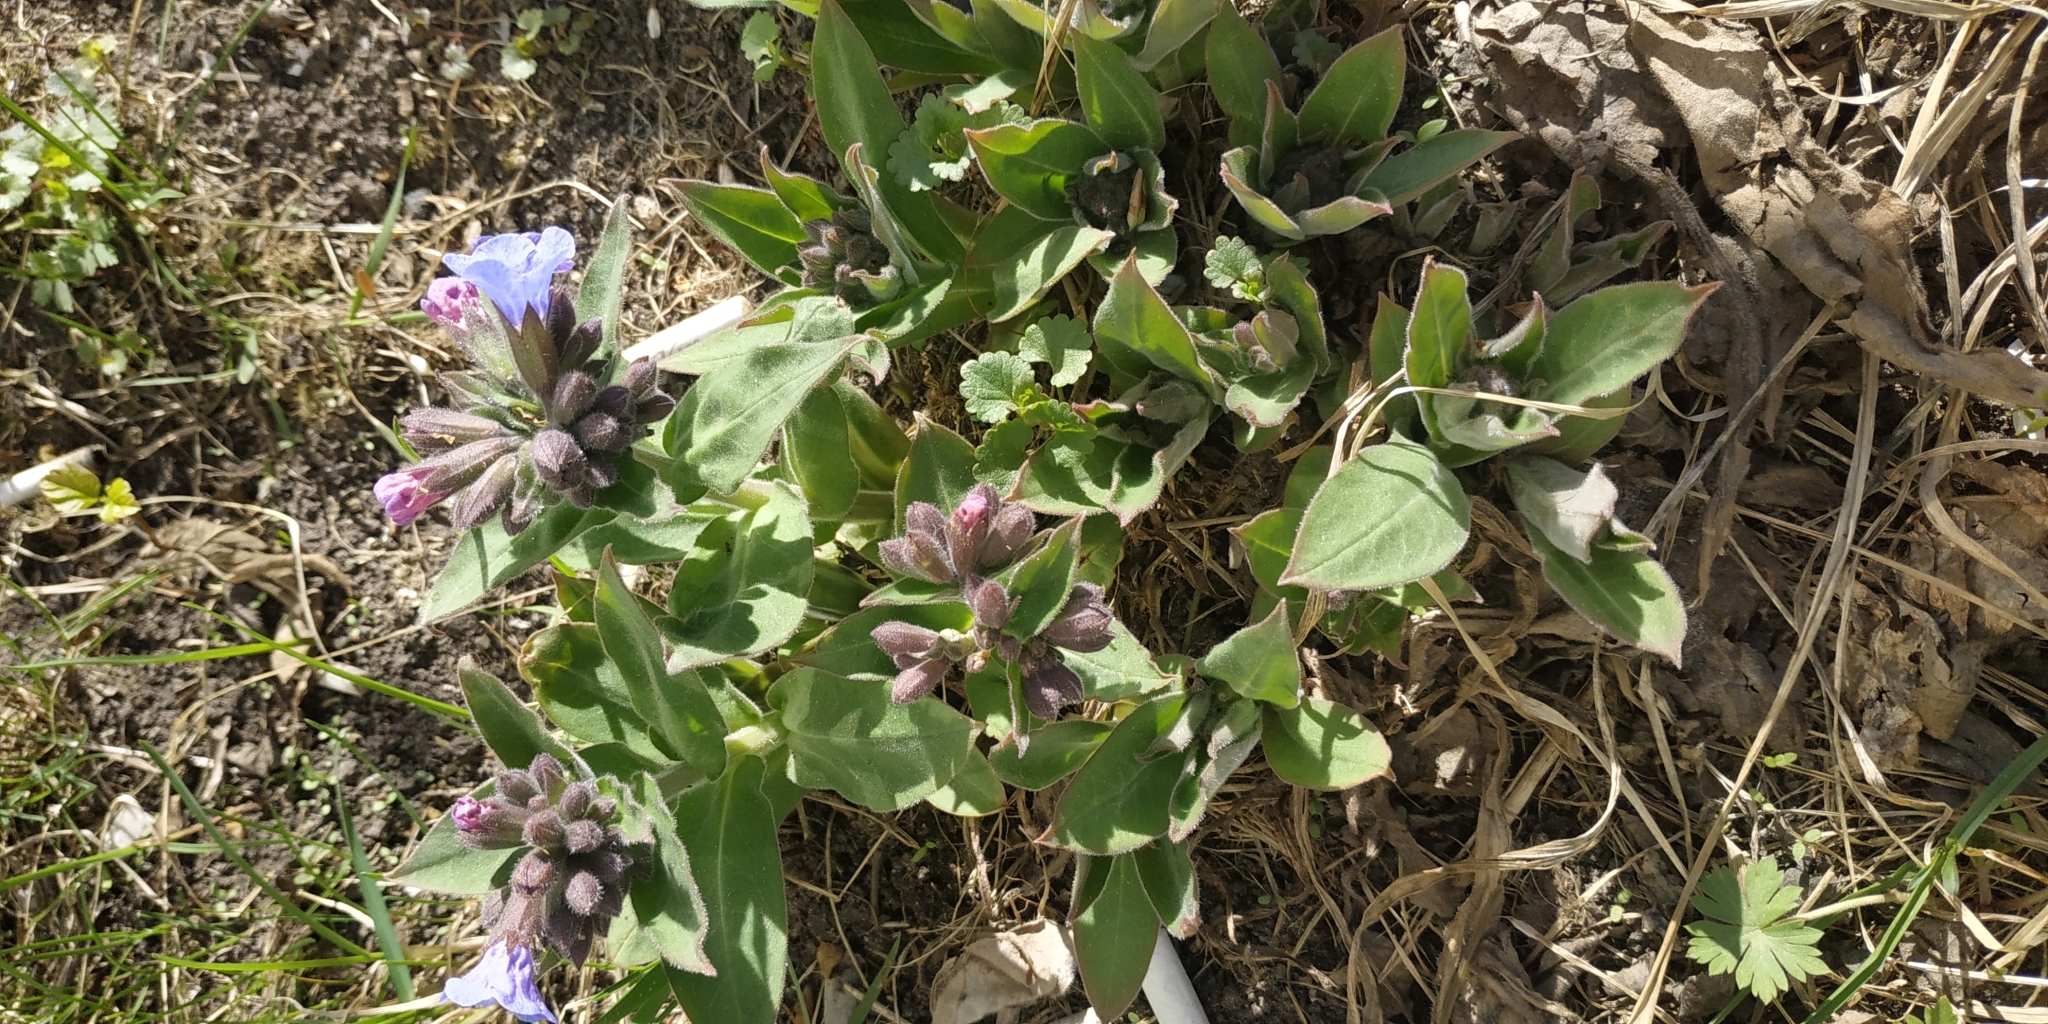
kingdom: Plantae
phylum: Tracheophyta
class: Magnoliopsida
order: Boraginales
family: Boraginaceae
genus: Pulmonaria
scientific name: Pulmonaria mollis
